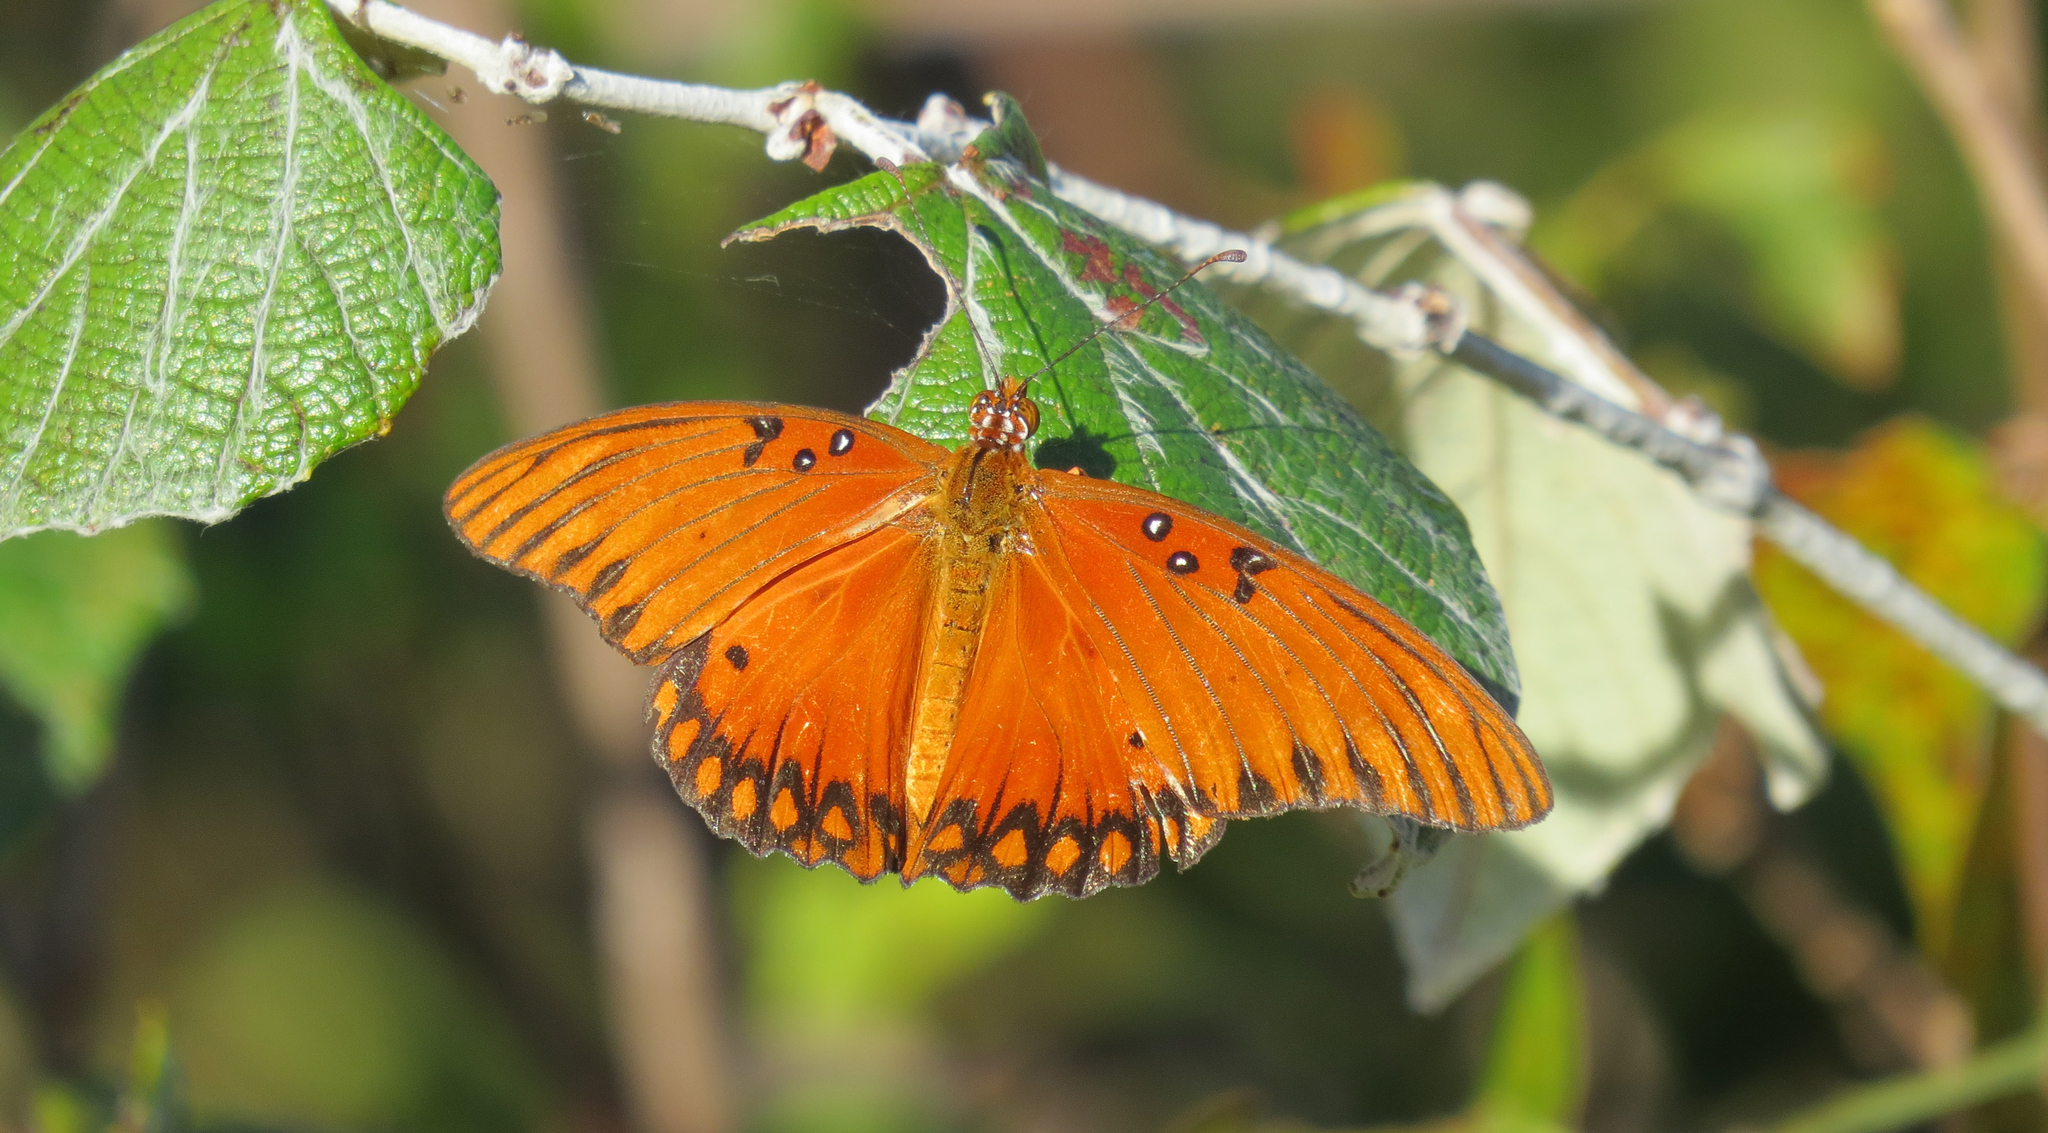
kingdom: Animalia
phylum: Arthropoda
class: Insecta
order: Lepidoptera
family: Nymphalidae
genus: Dione
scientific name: Dione vanillae
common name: Gulf fritillary
